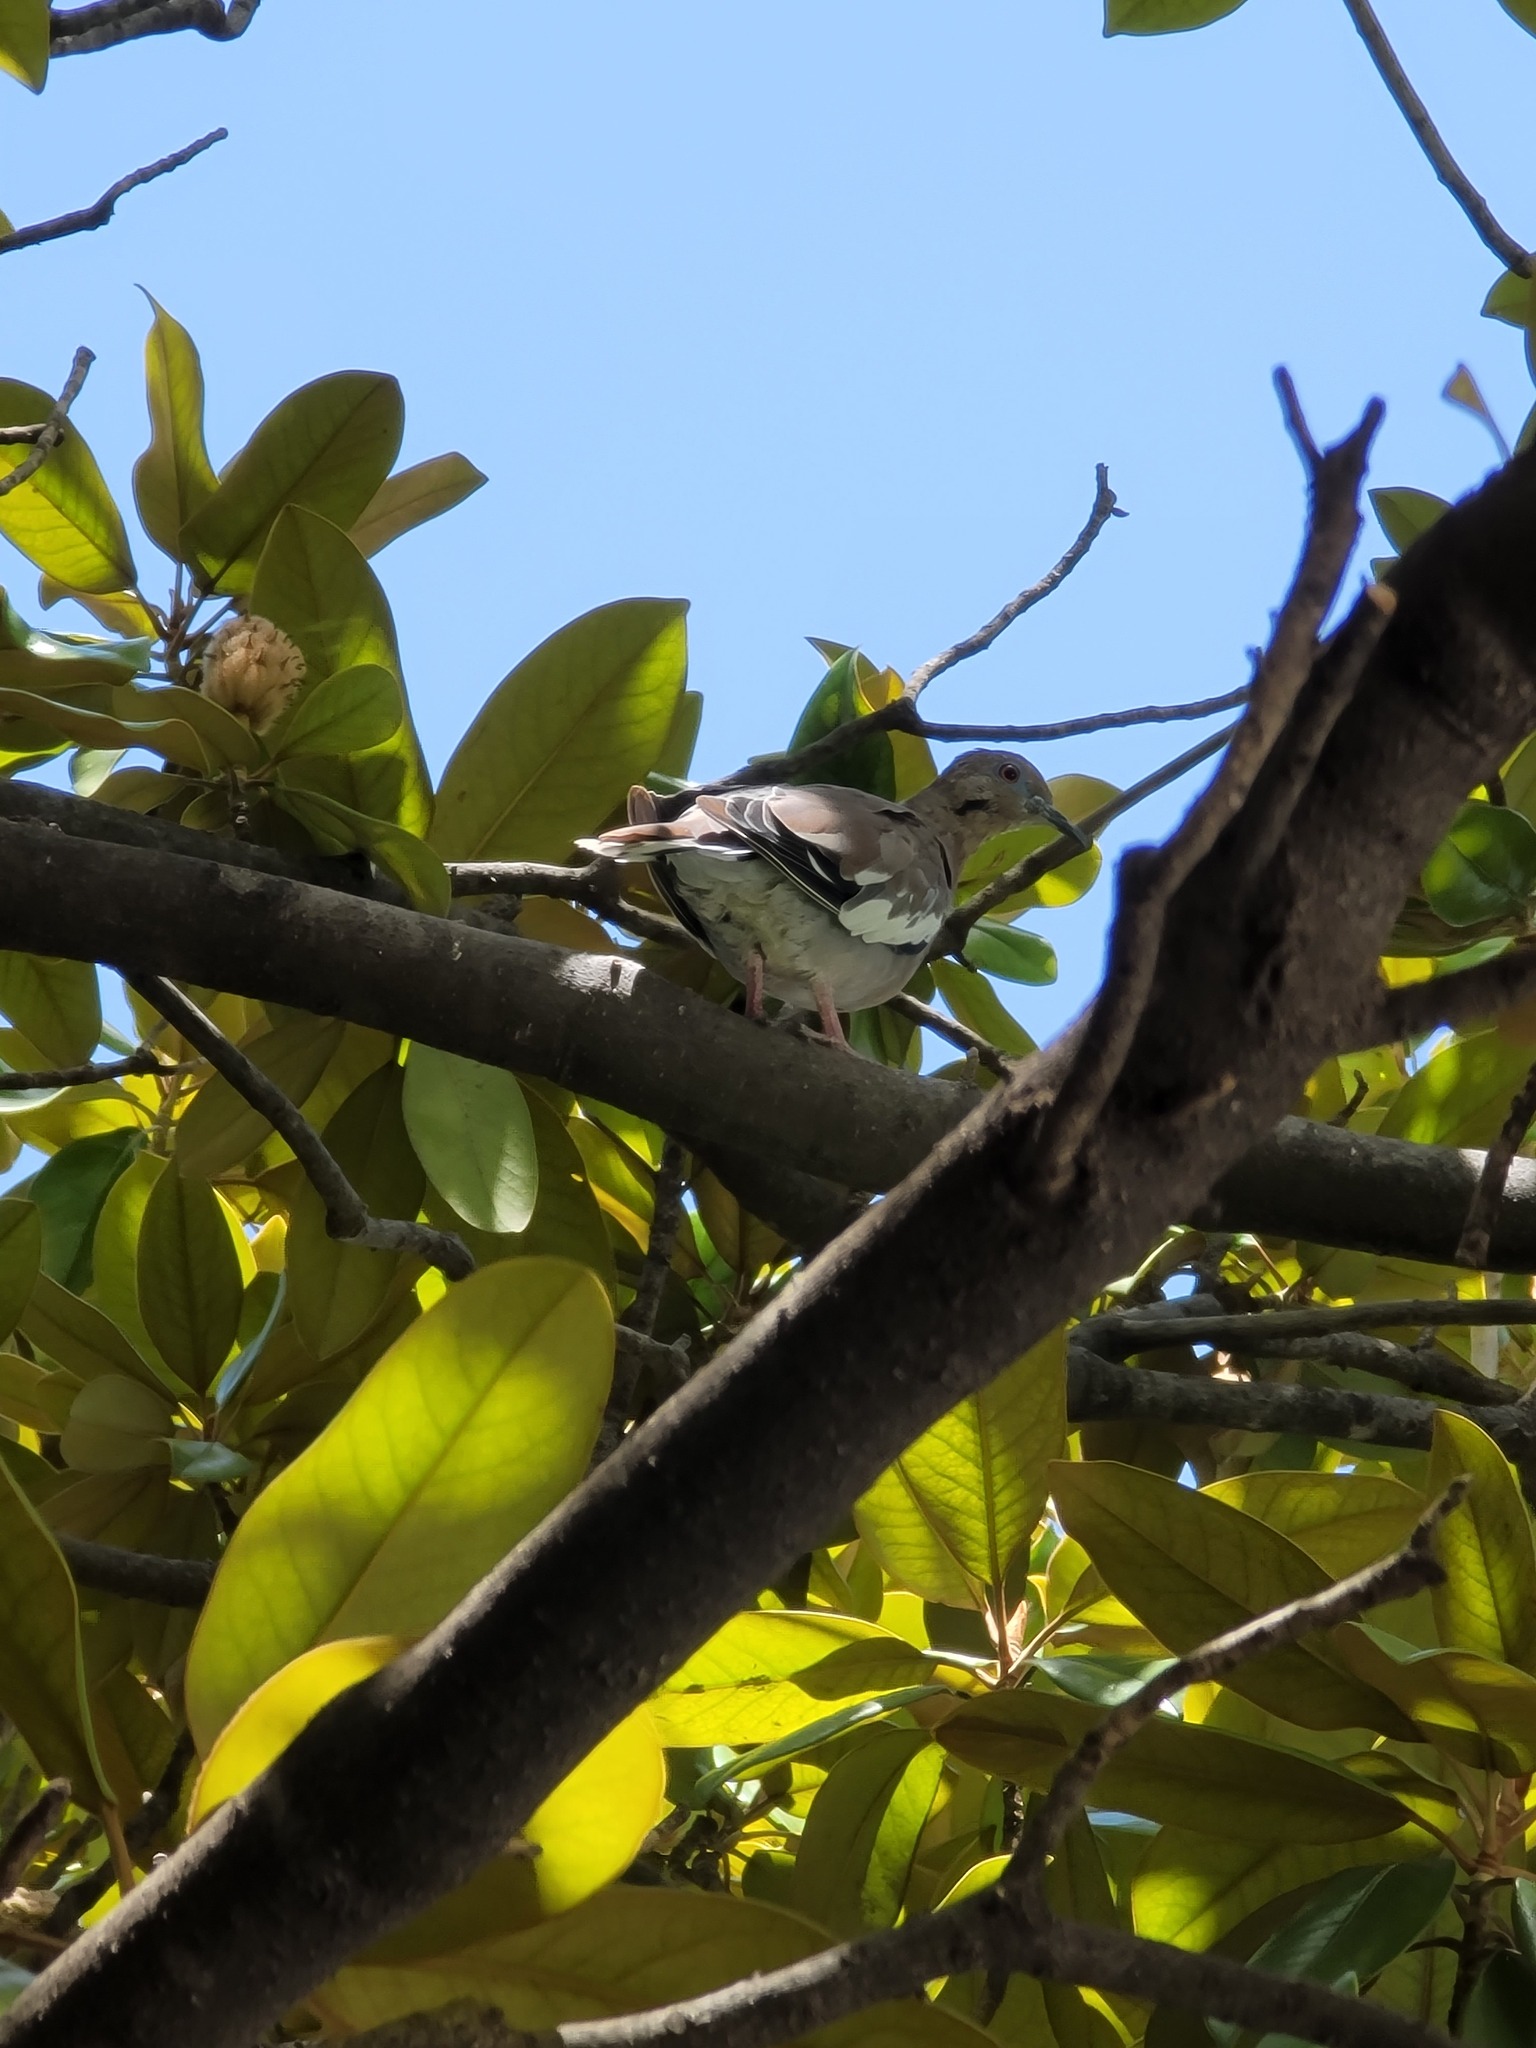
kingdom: Animalia
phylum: Chordata
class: Aves
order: Columbiformes
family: Columbidae
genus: Zenaida
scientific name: Zenaida asiatica
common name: White-winged dove
